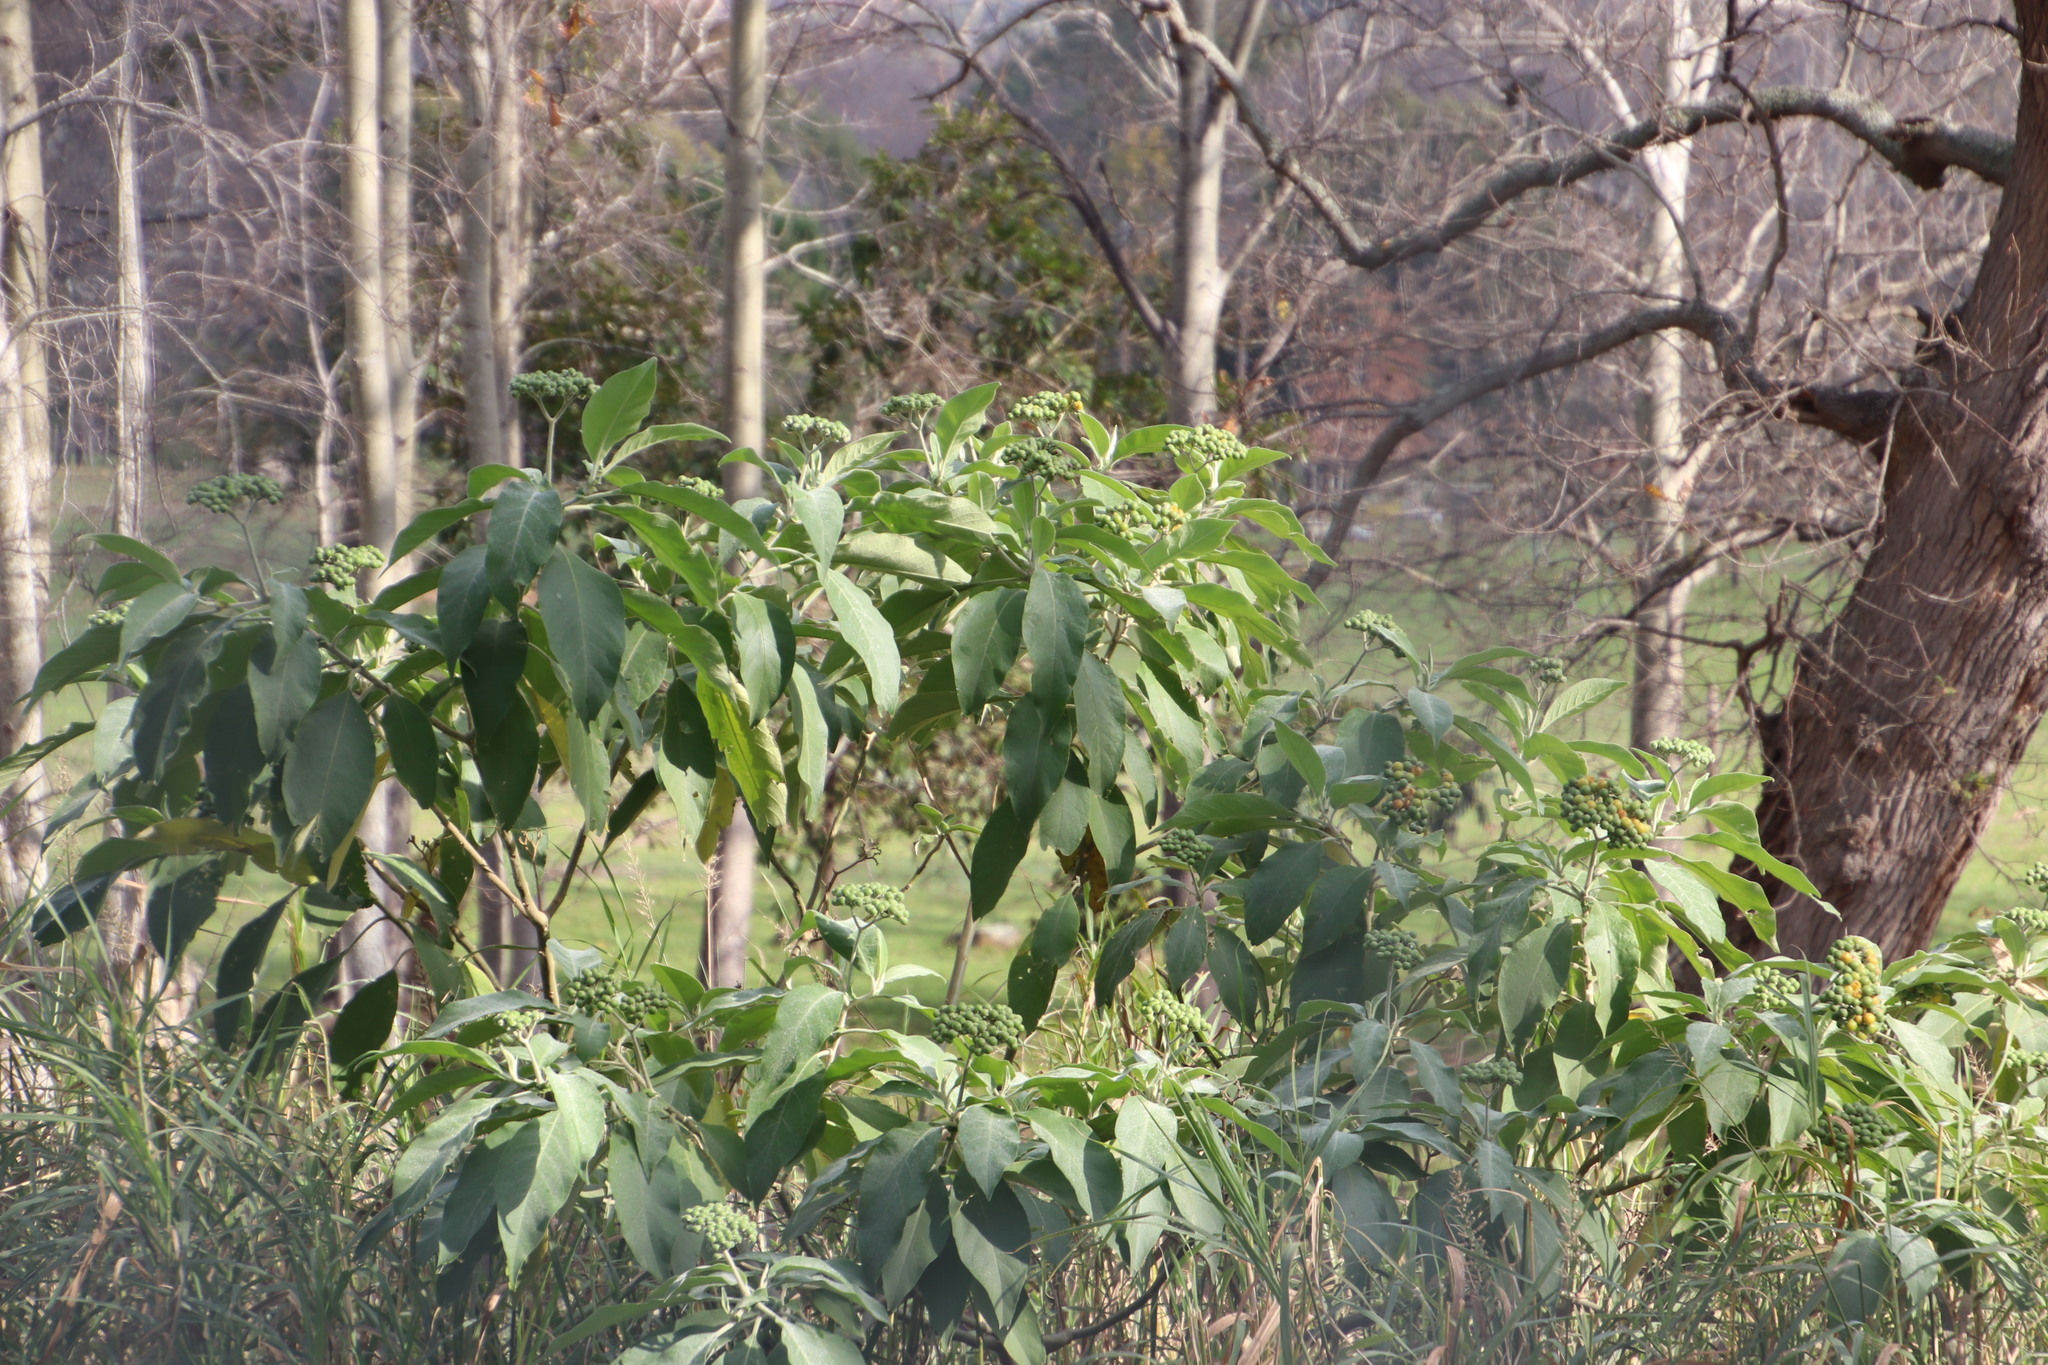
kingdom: Plantae
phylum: Tracheophyta
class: Magnoliopsida
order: Solanales
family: Solanaceae
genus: Solanum
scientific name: Solanum mauritianum
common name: Earleaf nightshade
